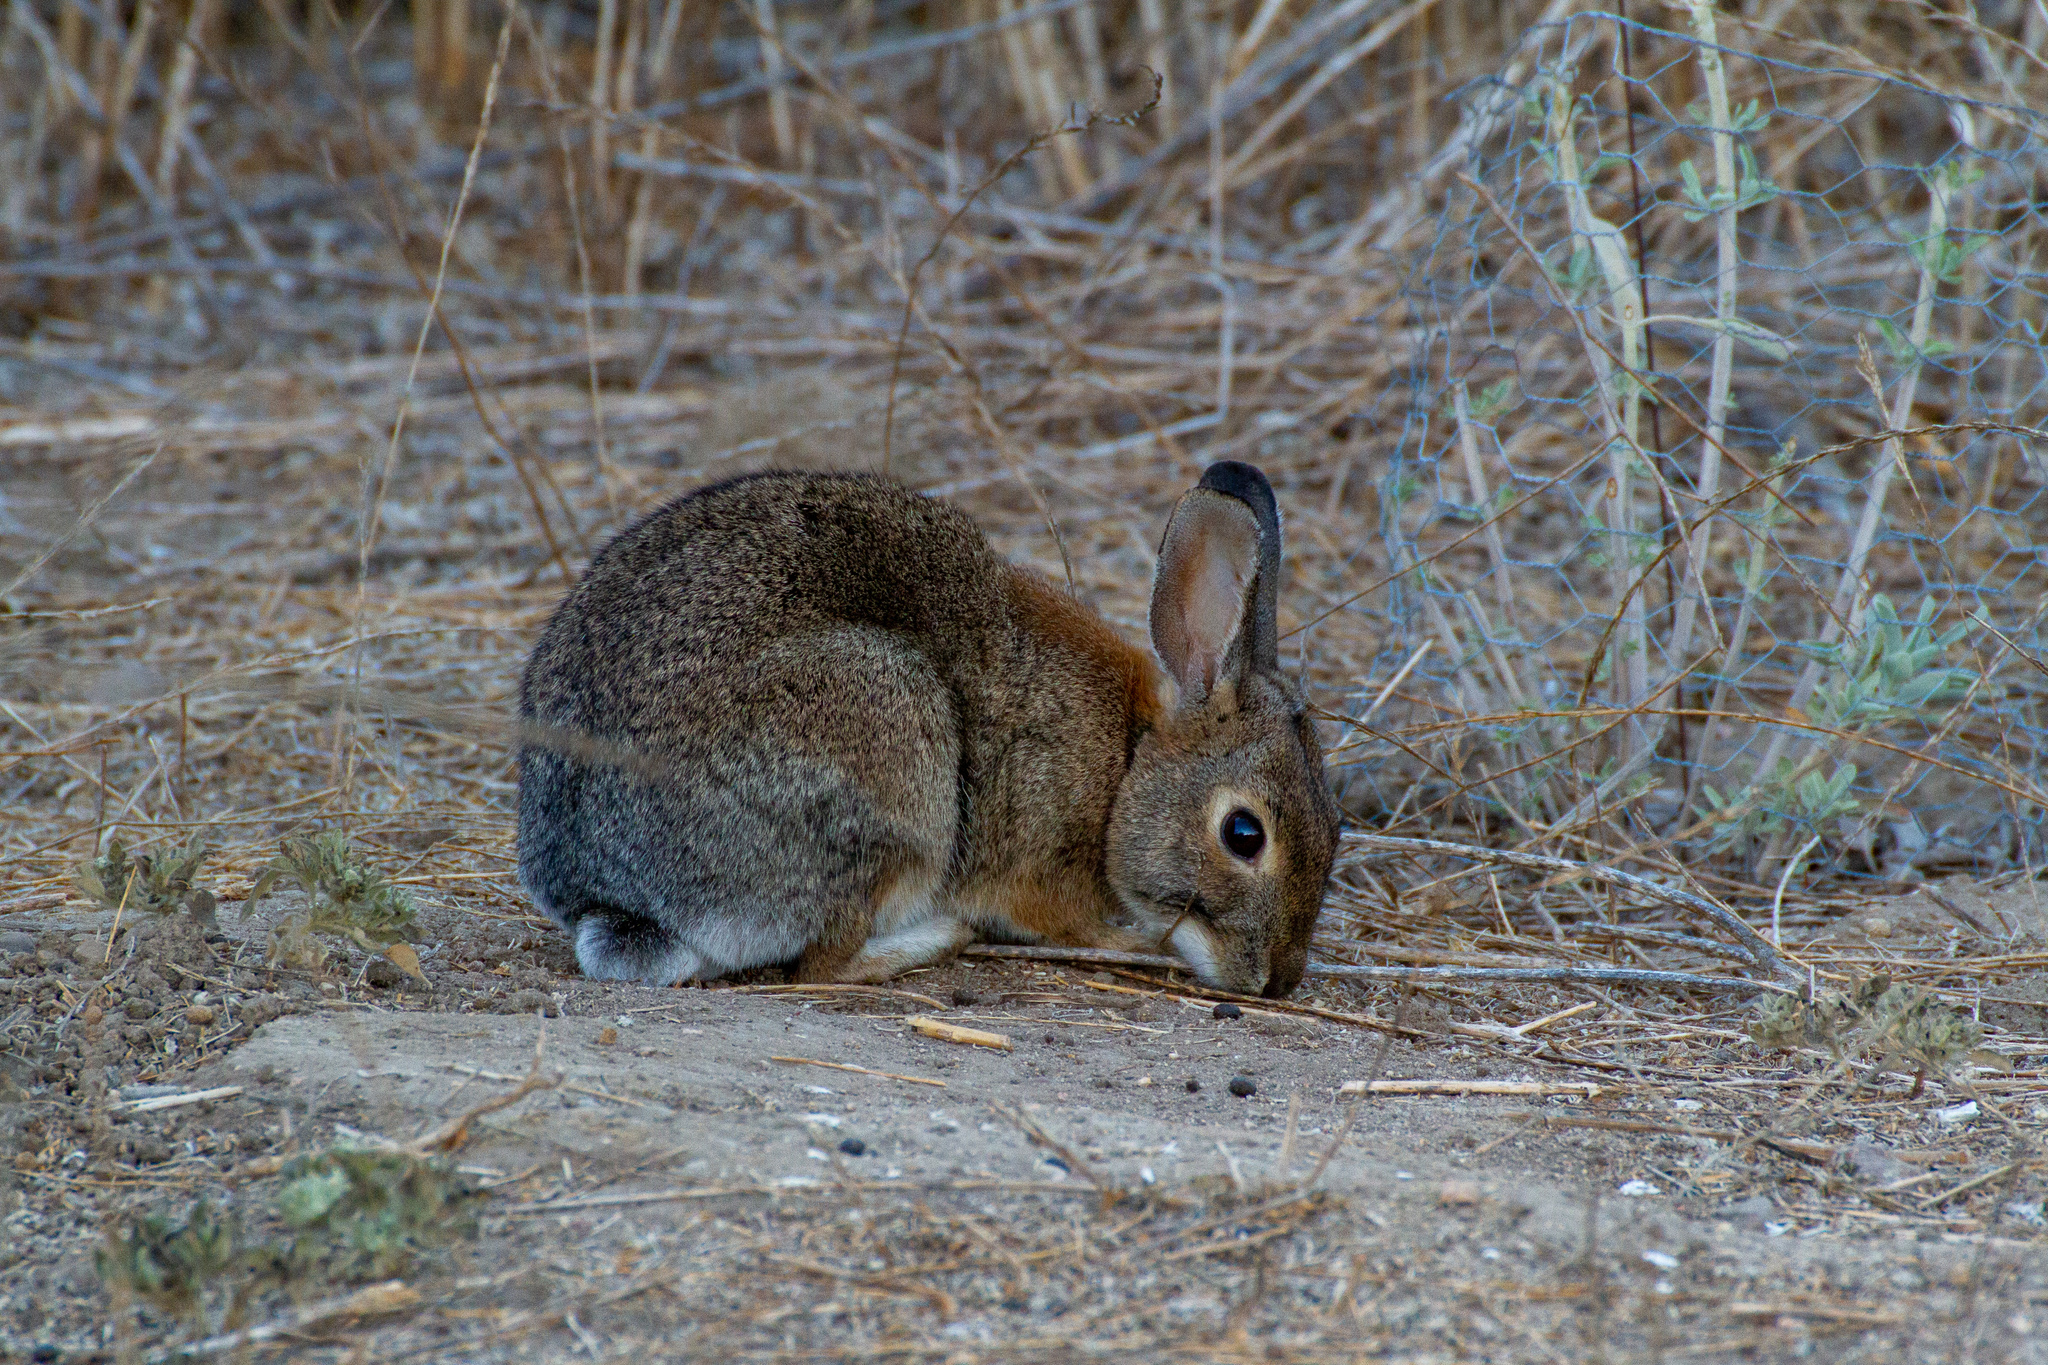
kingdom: Animalia
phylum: Chordata
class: Mammalia
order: Lagomorpha
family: Leporidae
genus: Sylvilagus
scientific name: Sylvilagus audubonii
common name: Desert cottontail
